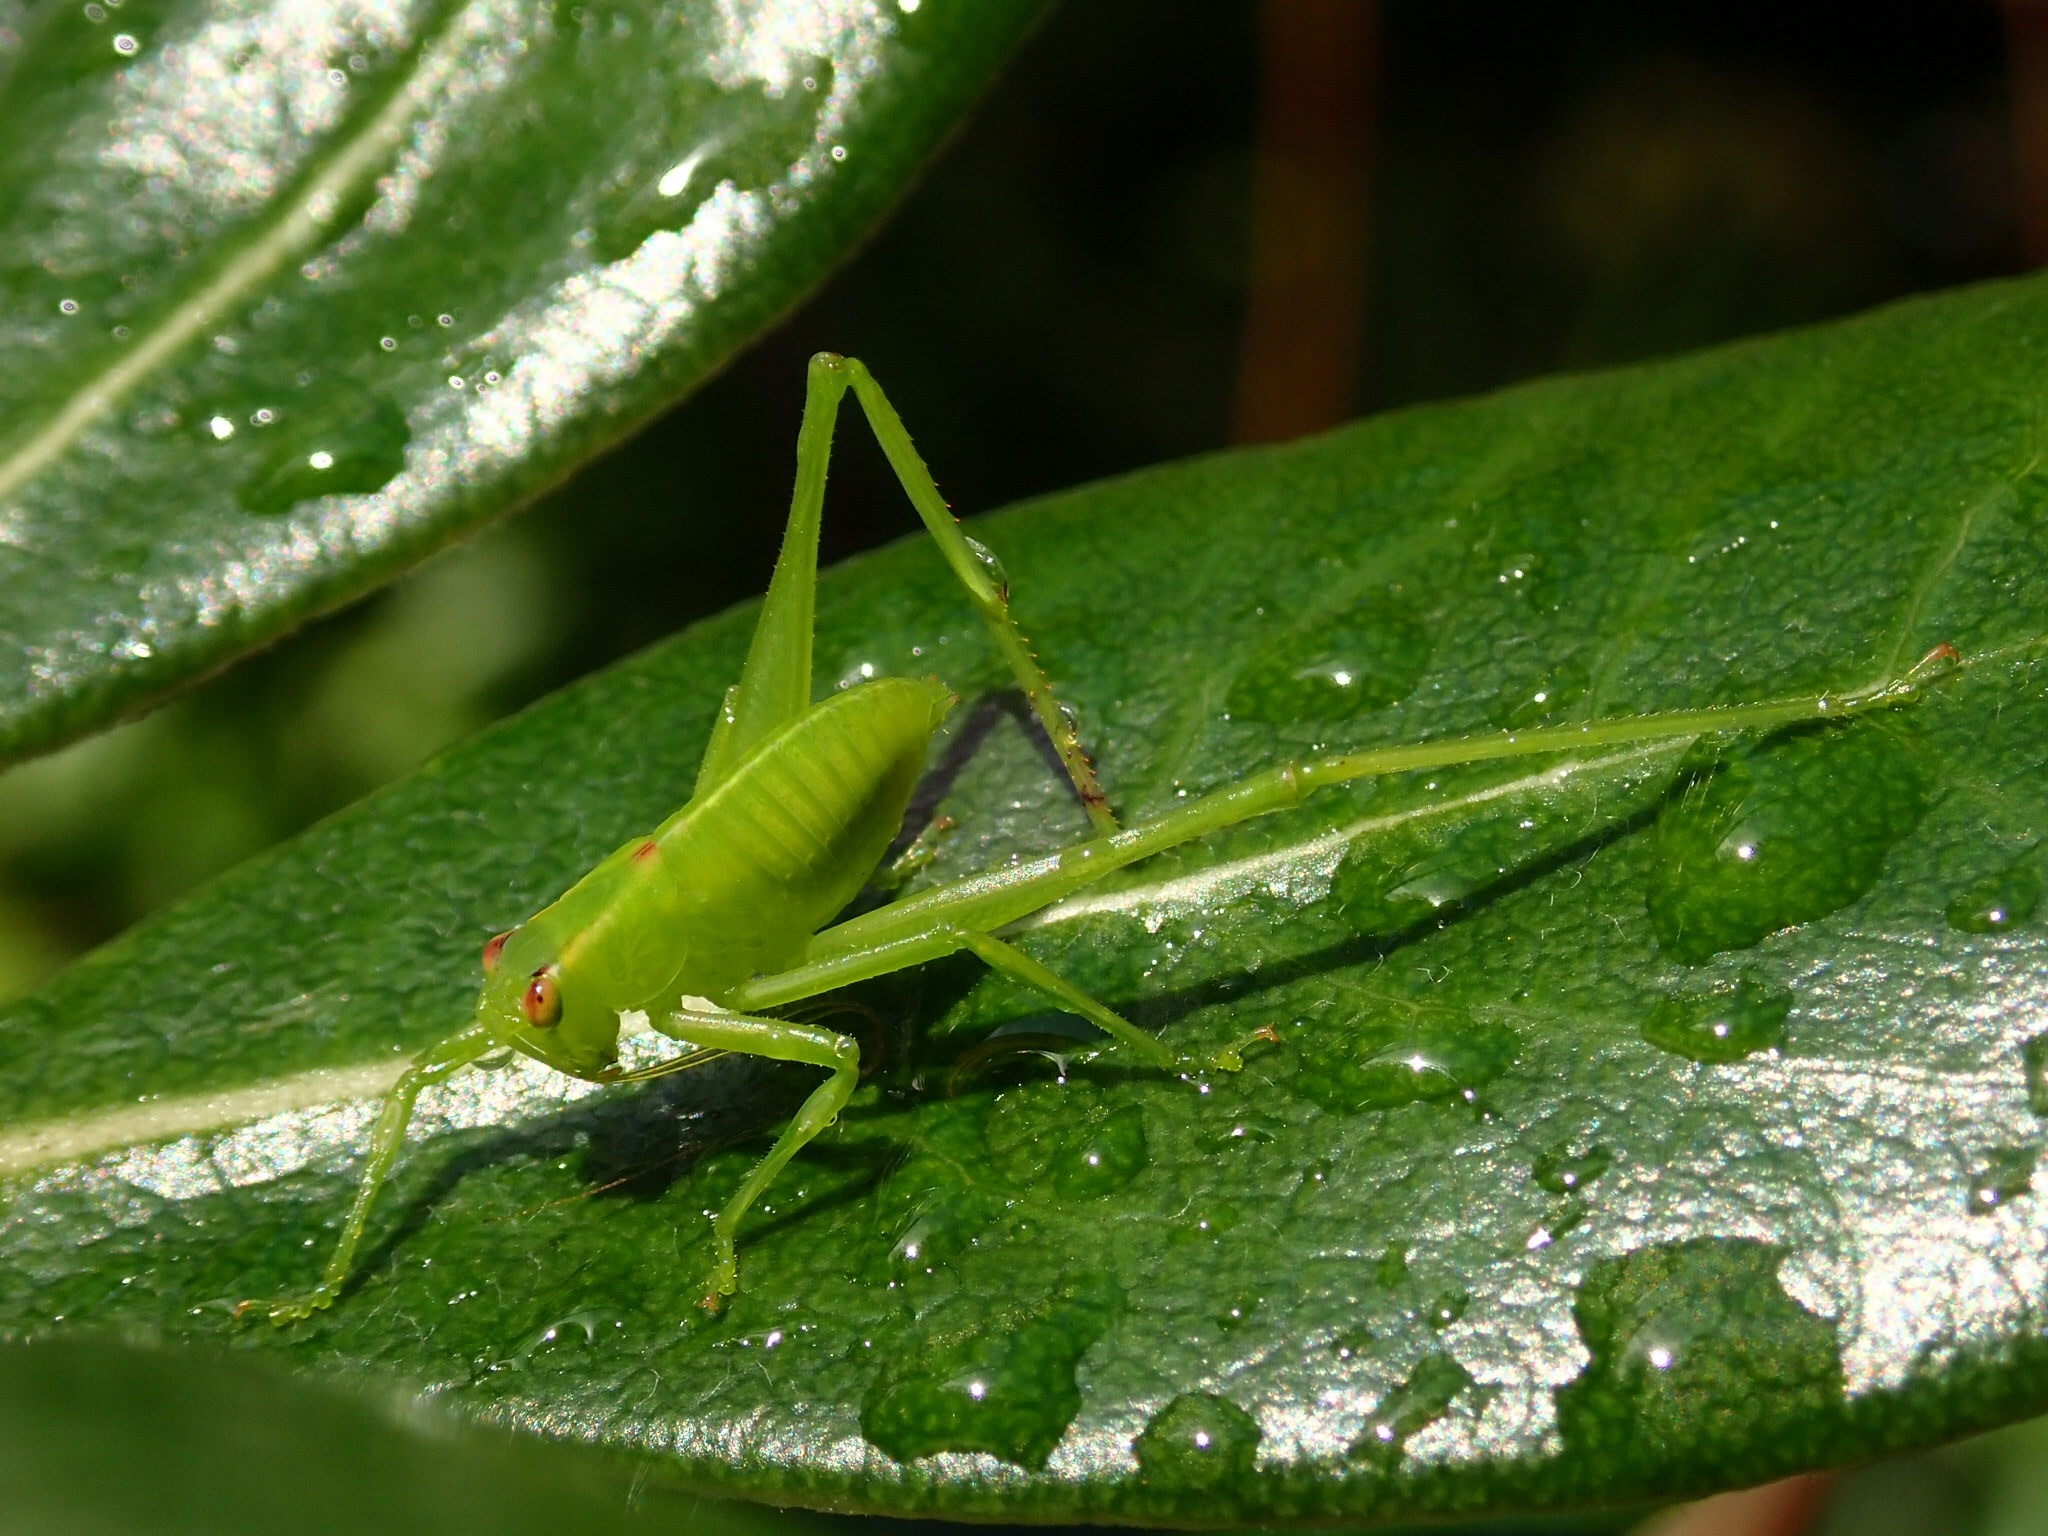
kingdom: Animalia
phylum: Arthropoda
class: Insecta
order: Orthoptera
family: Tettigoniidae
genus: Caedicia
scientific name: Caedicia simplex
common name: Common garden katydid
